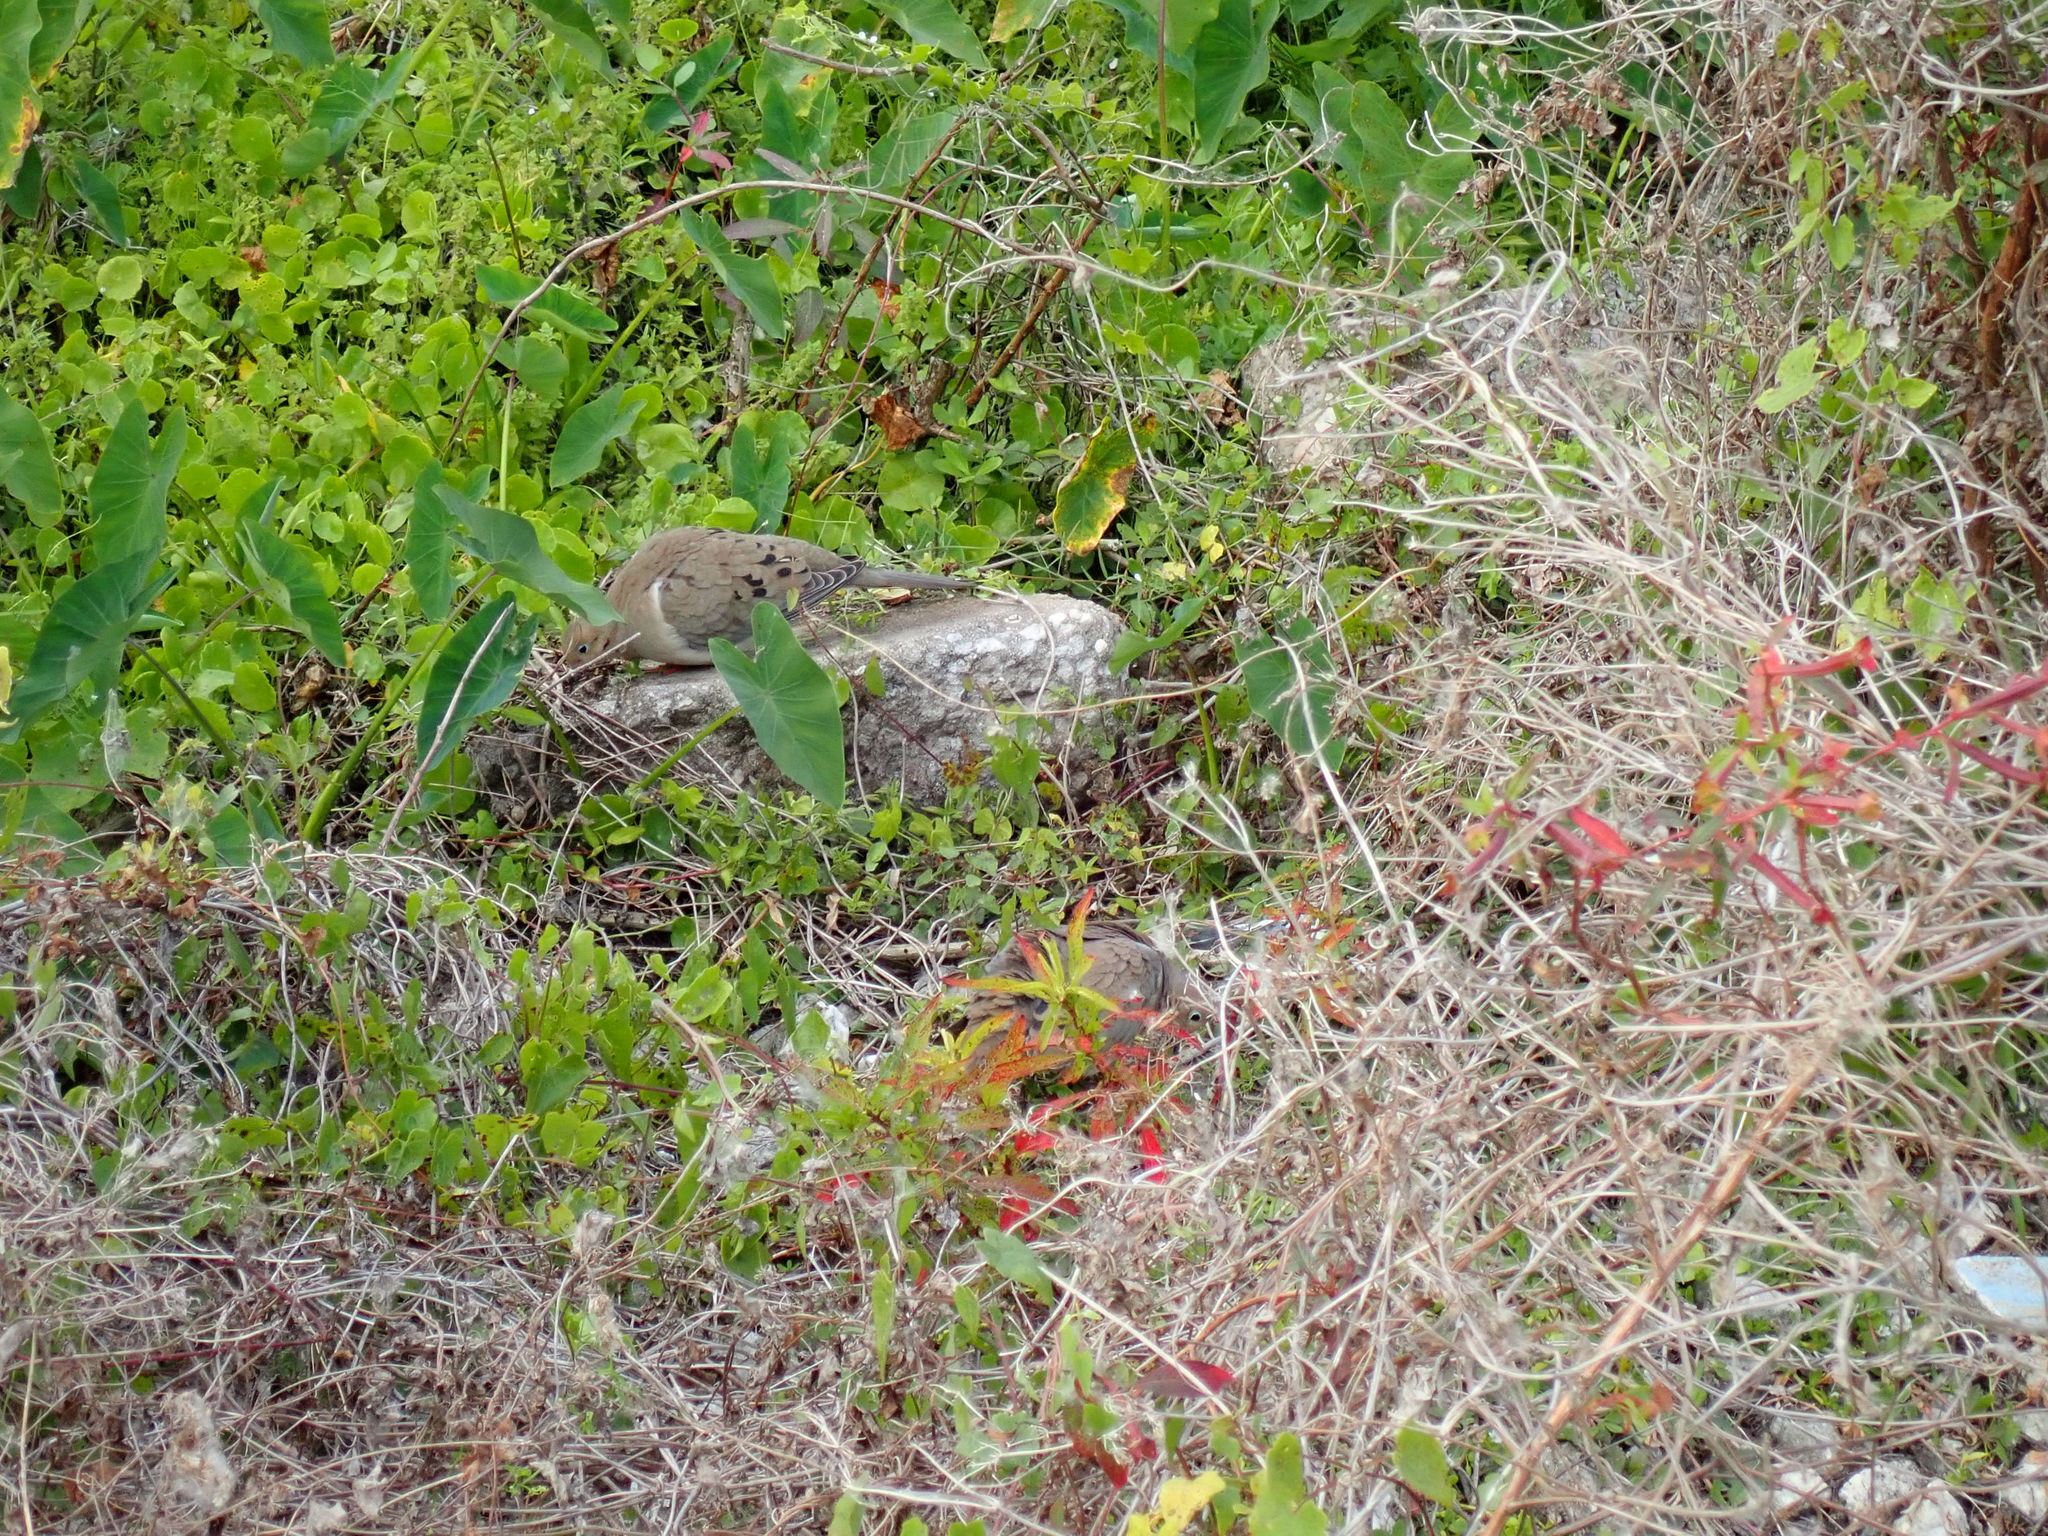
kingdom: Animalia
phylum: Chordata
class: Aves
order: Columbiformes
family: Columbidae
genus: Zenaida
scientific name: Zenaida macroura
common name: Mourning dove
